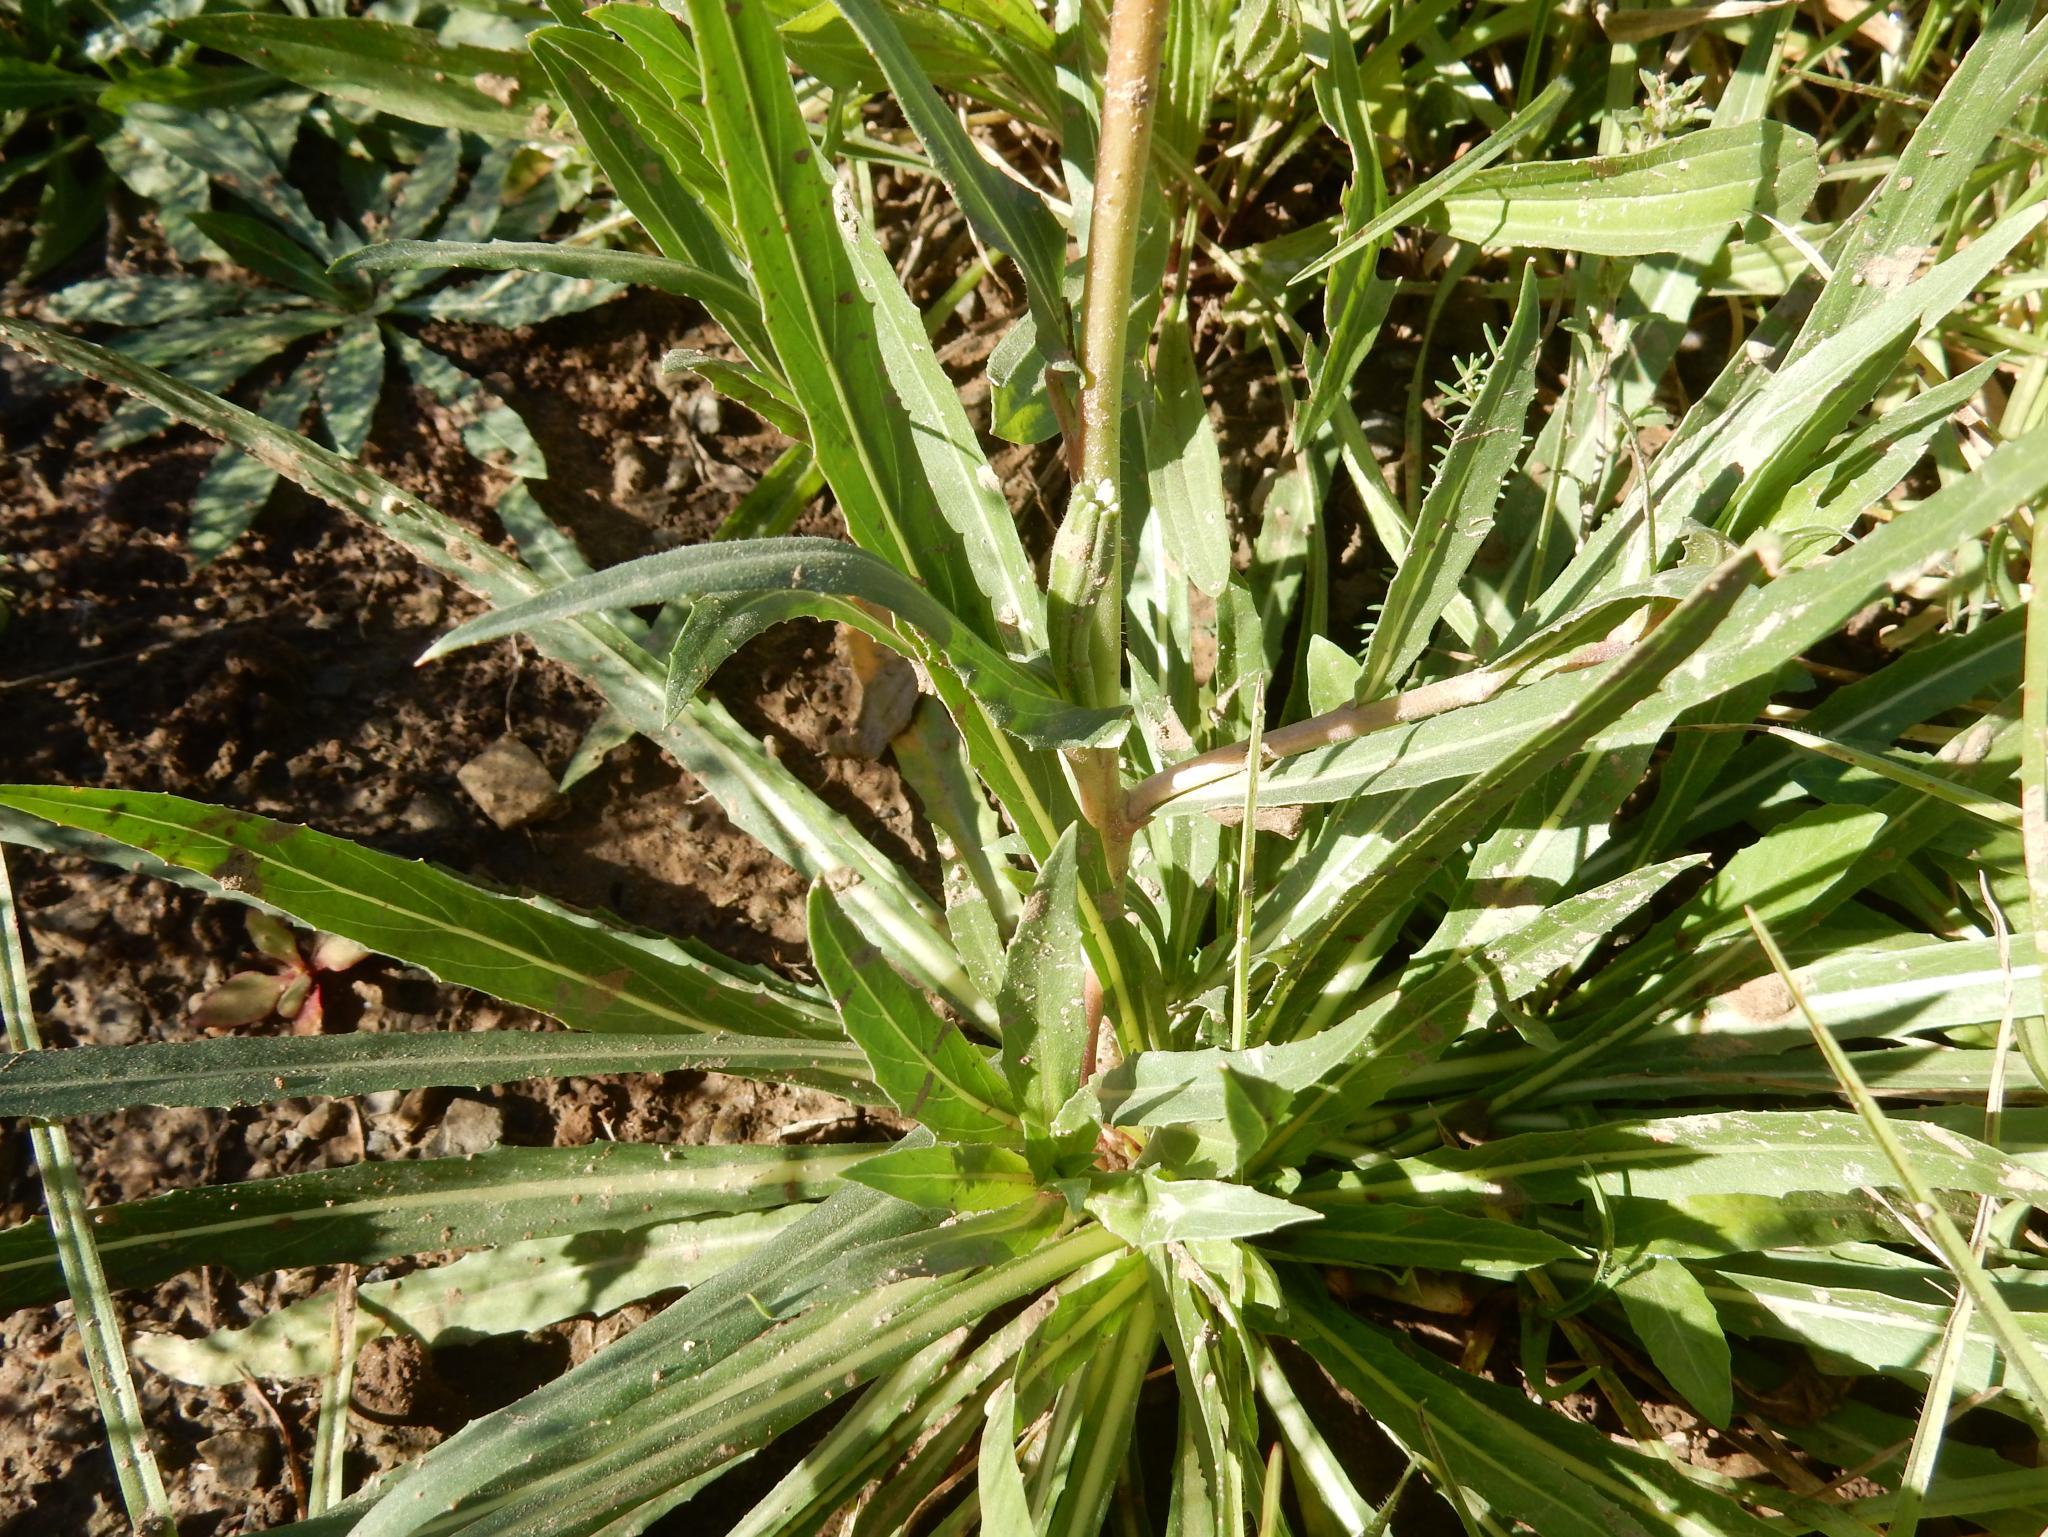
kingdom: Plantae
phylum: Tracheophyta
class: Magnoliopsida
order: Myrtales
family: Onagraceae
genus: Oenothera
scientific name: Oenothera stricta
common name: Fragrant evening-primrose
